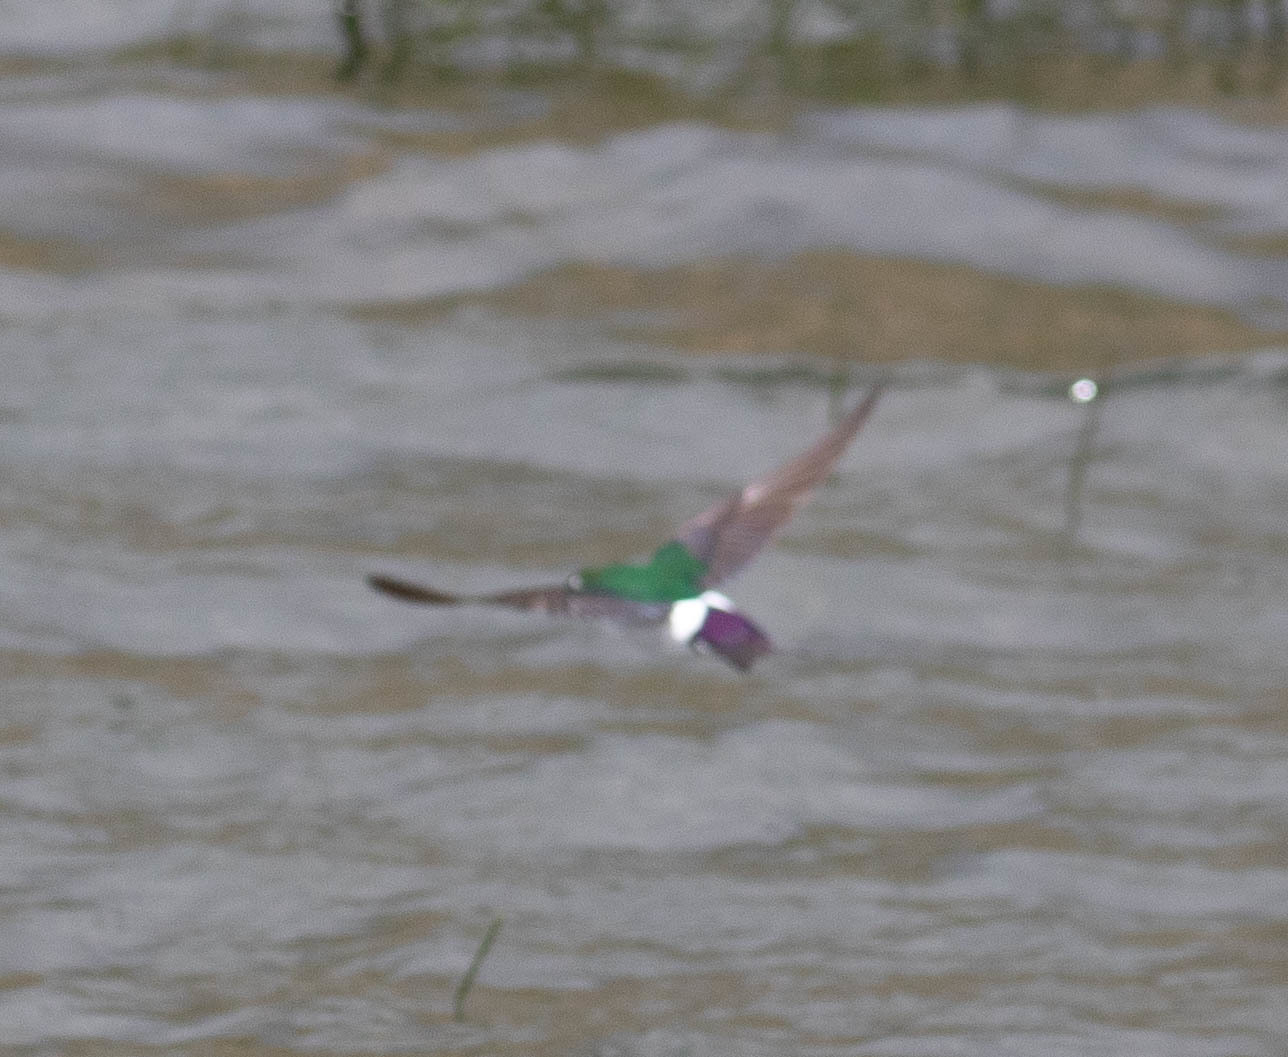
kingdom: Animalia
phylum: Chordata
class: Aves
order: Passeriformes
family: Hirundinidae
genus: Tachycineta
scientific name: Tachycineta thalassina
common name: Violet-green swallow
